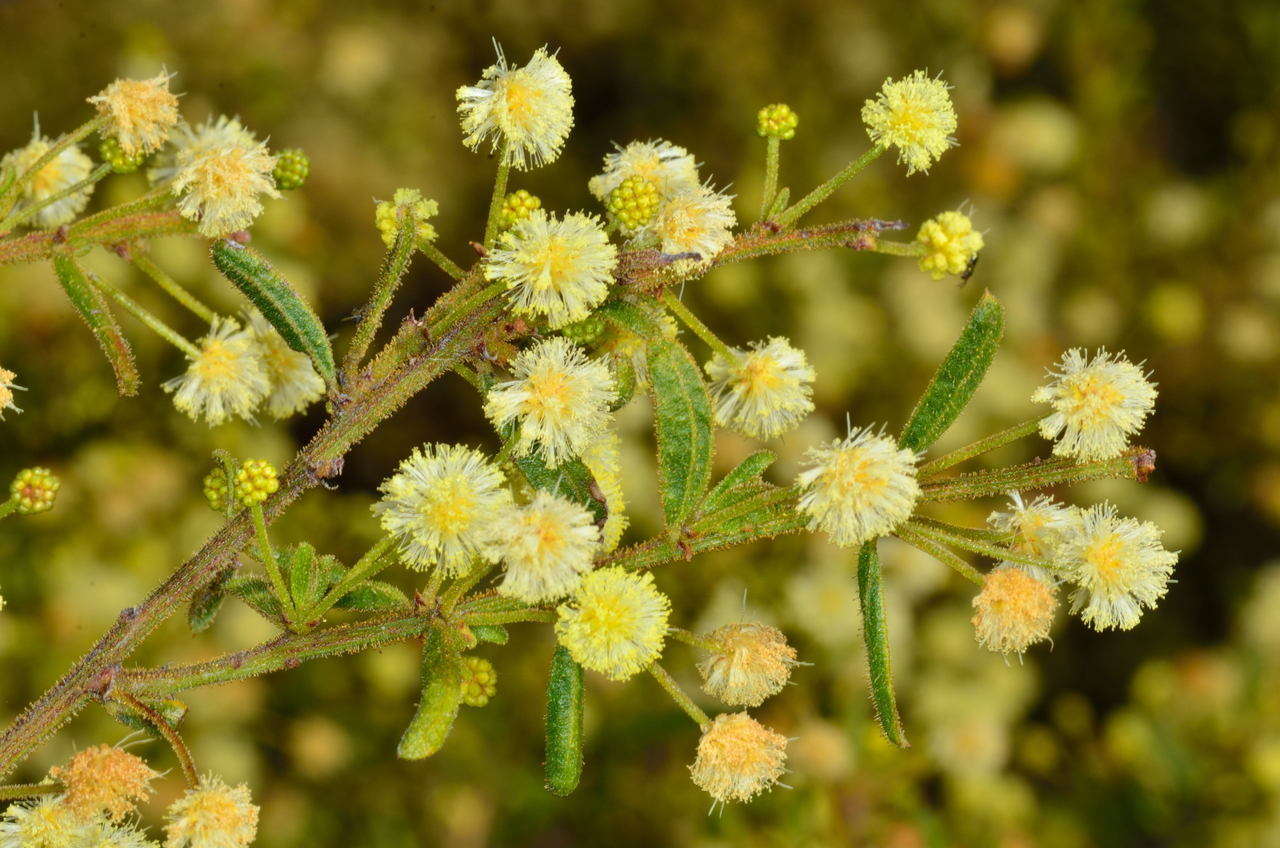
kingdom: Plantae
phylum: Tracheophyta
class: Magnoliopsida
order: Fabales
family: Fabaceae
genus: Acacia
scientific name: Acacia aspera
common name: Rough wattle
